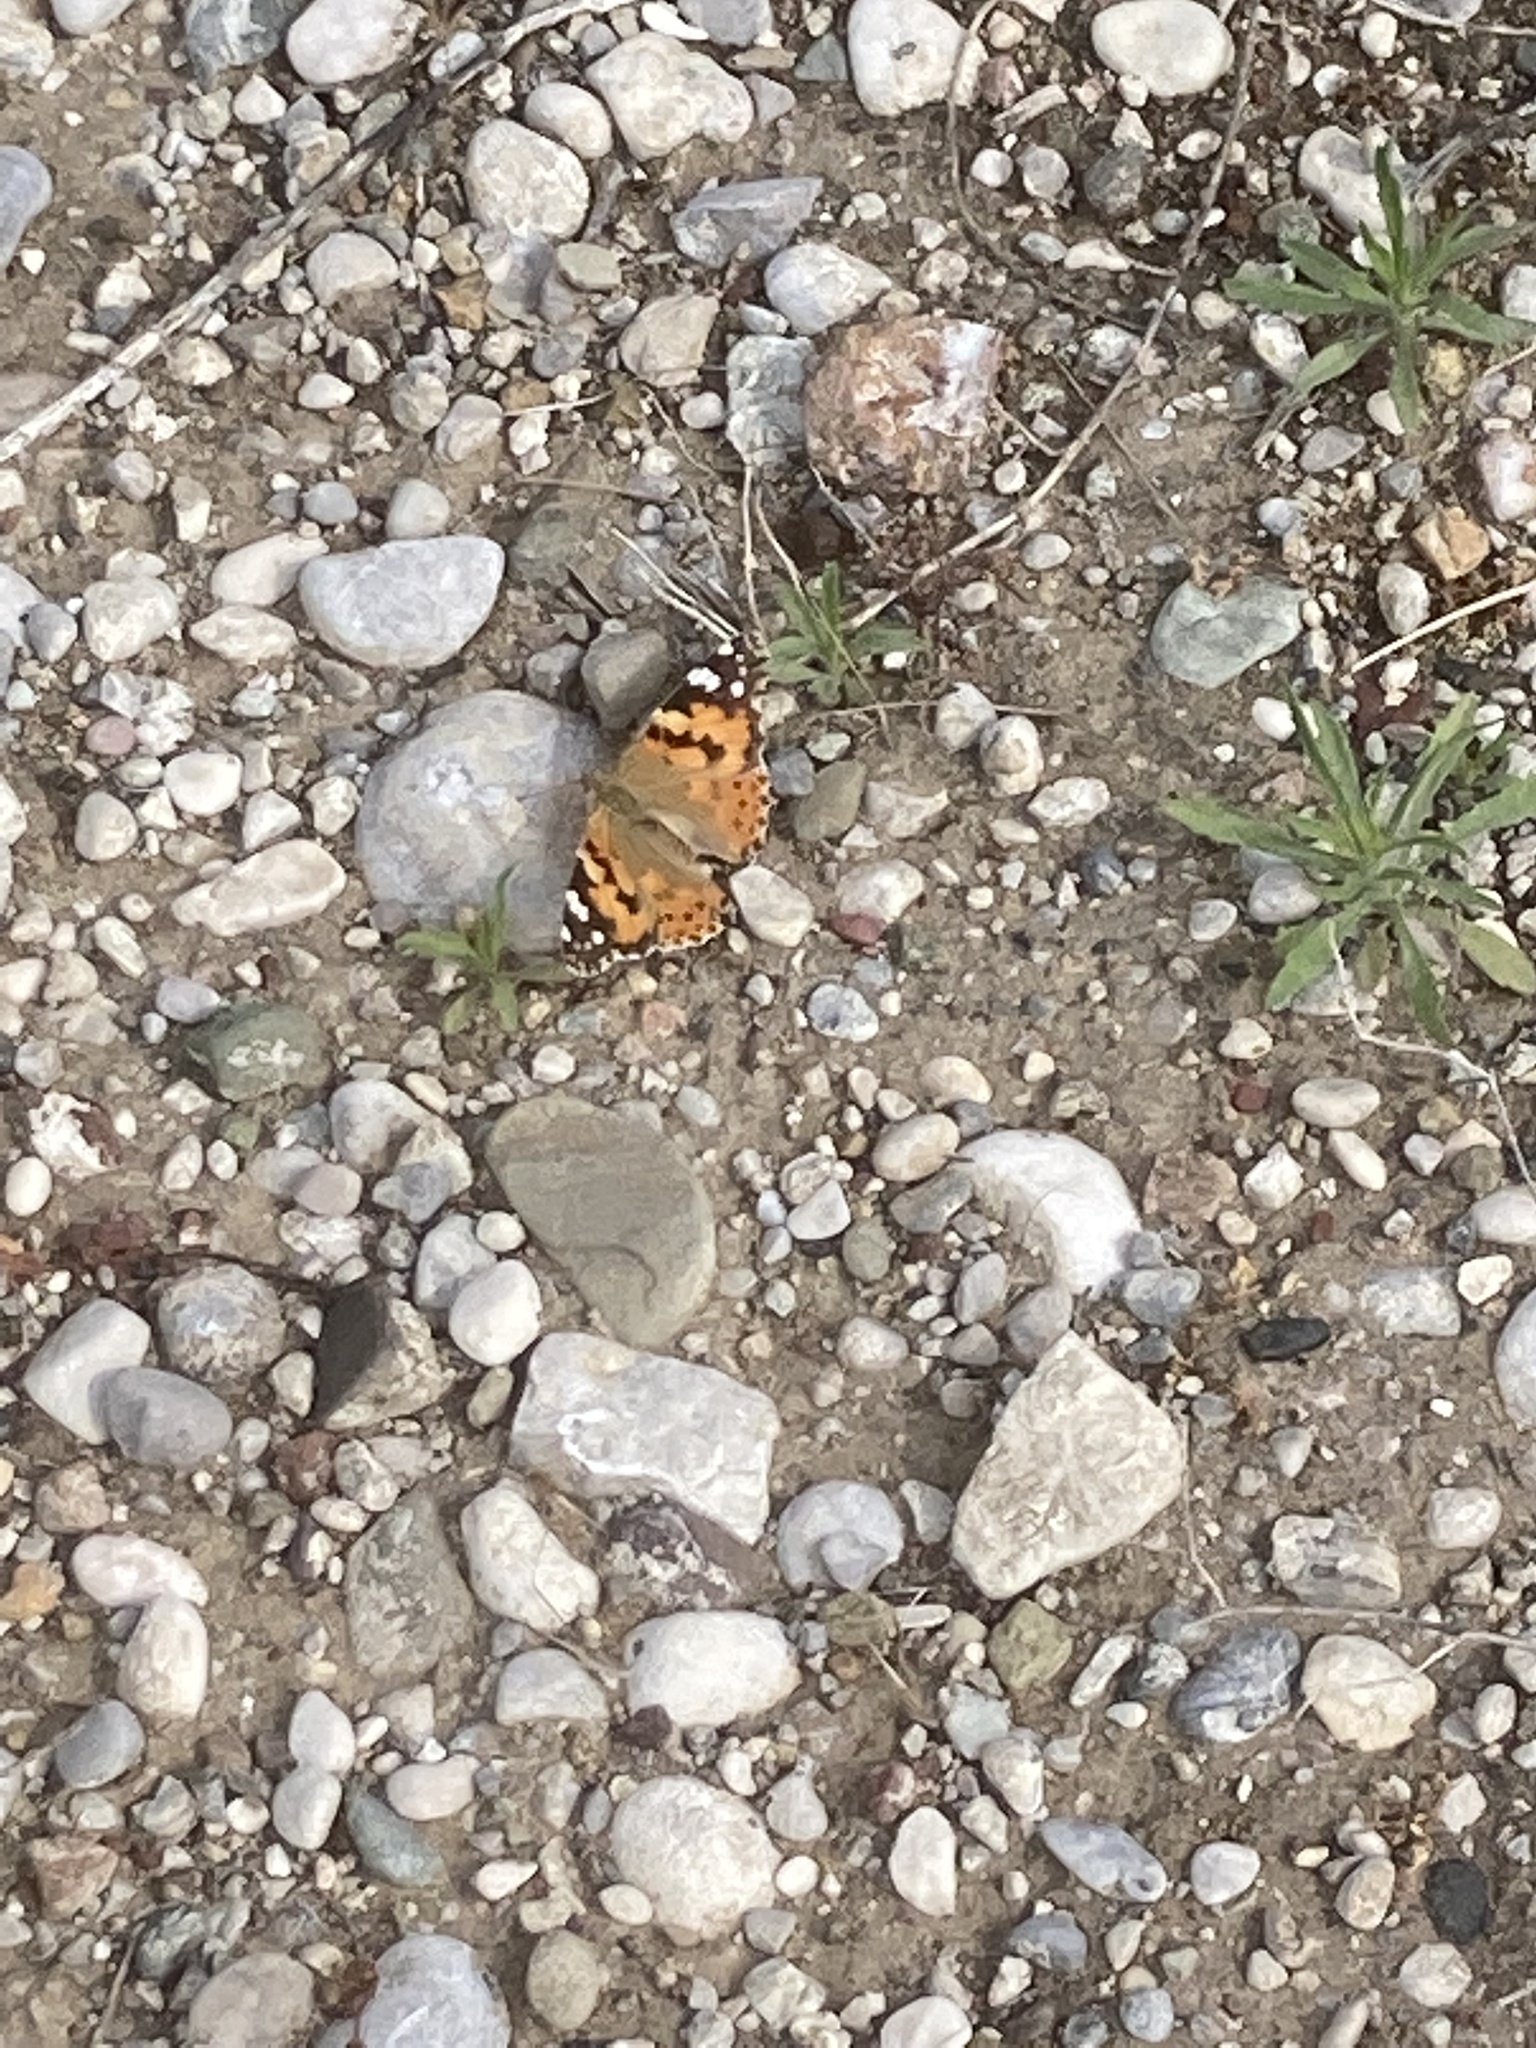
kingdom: Animalia
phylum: Arthropoda
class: Insecta
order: Lepidoptera
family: Nymphalidae
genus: Vanessa
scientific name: Vanessa cardui
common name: Painted lady
